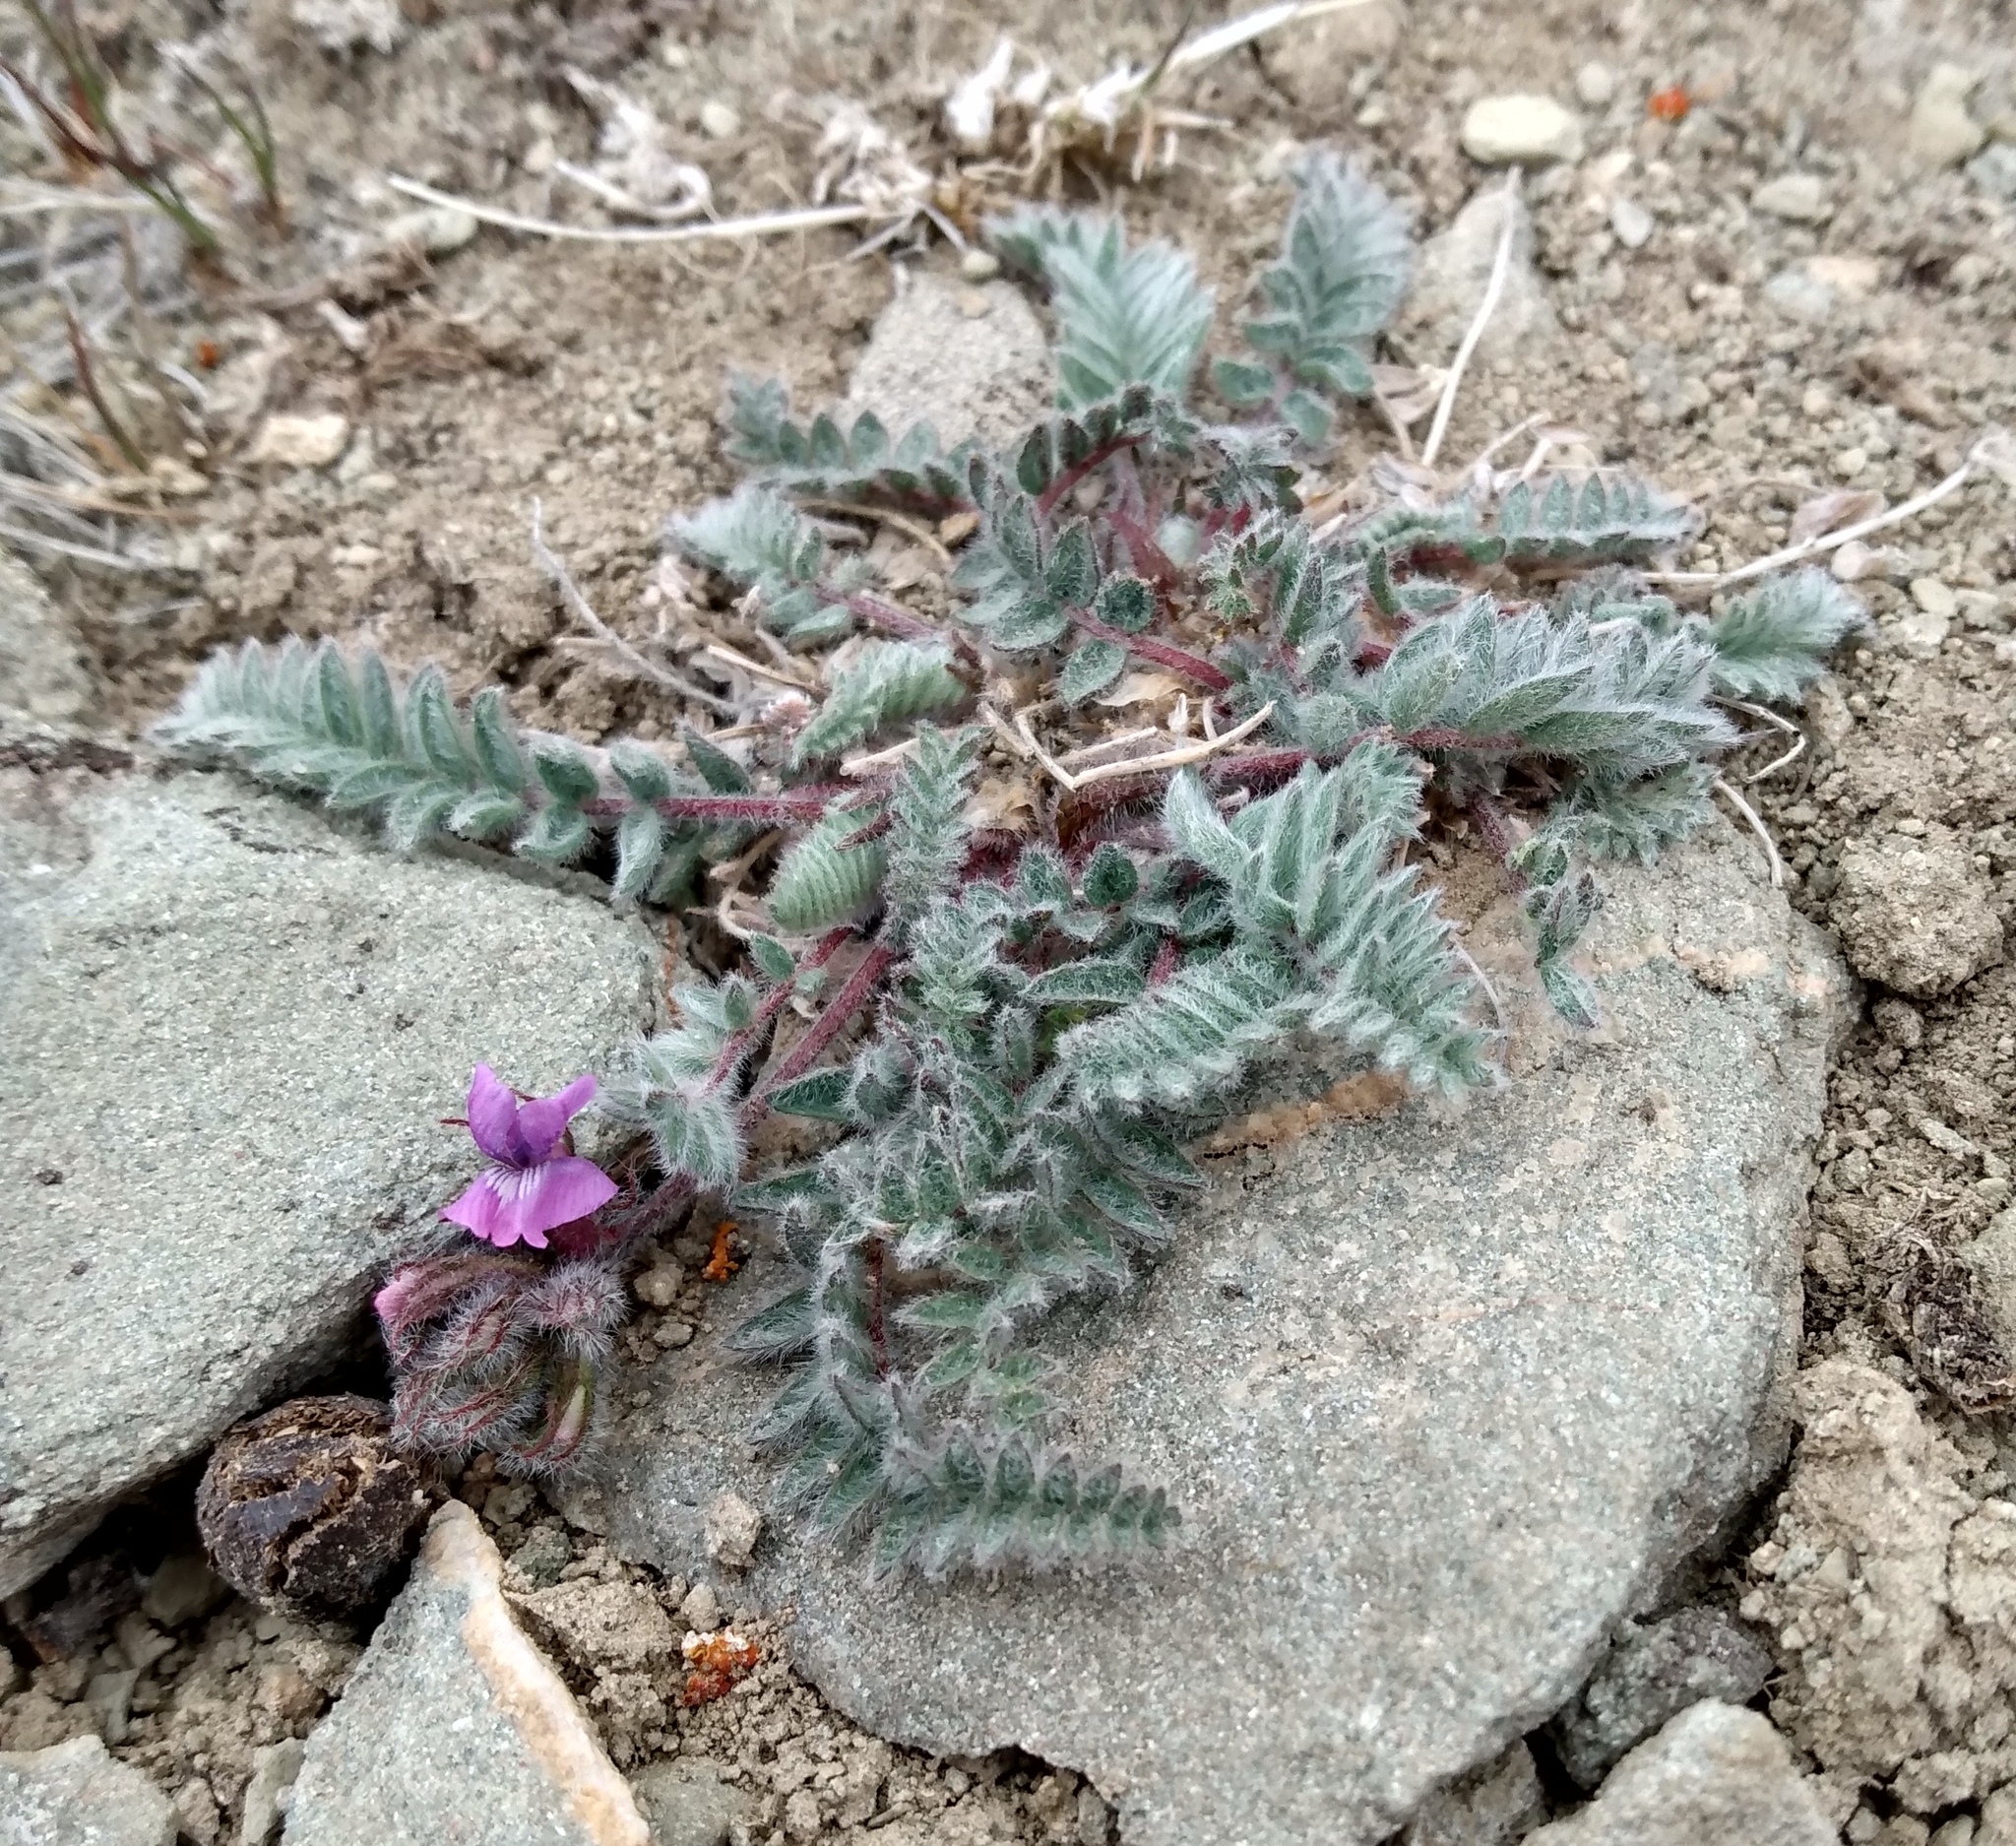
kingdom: Plantae
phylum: Tracheophyta
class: Magnoliopsida
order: Fabales
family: Fabaceae
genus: Oxytropis
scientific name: Oxytropis deflexa
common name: Stemmed oxytrope
